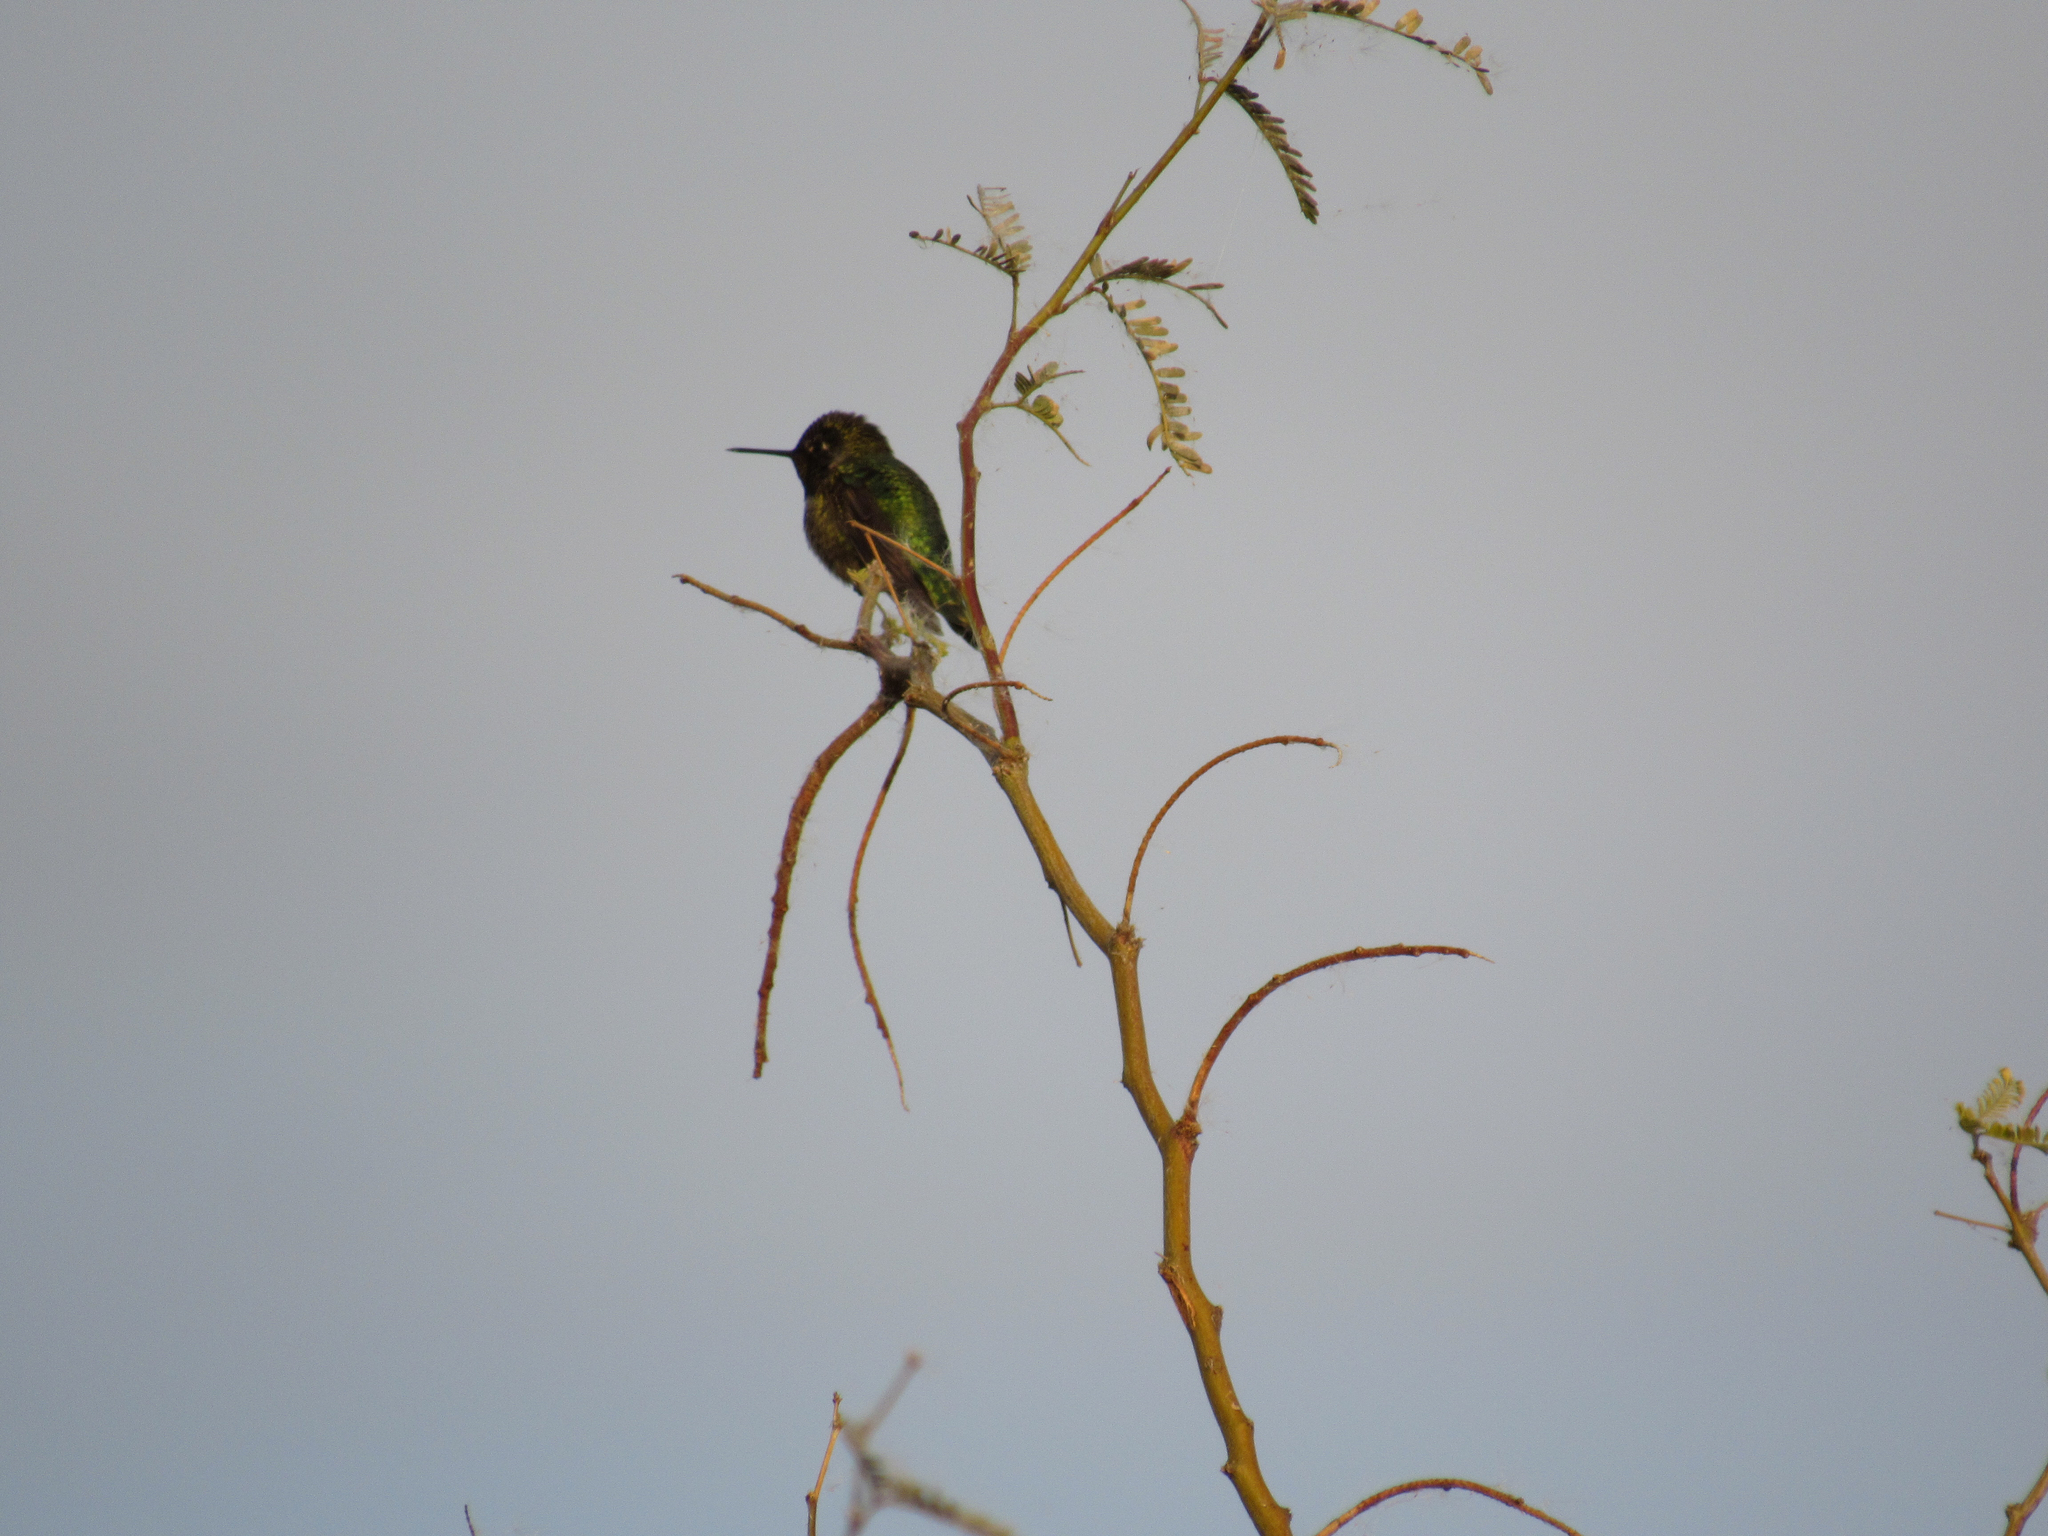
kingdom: Animalia
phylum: Chordata
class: Aves
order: Apodiformes
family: Trochilidae
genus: Calypte
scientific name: Calypte anna
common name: Anna's hummingbird
